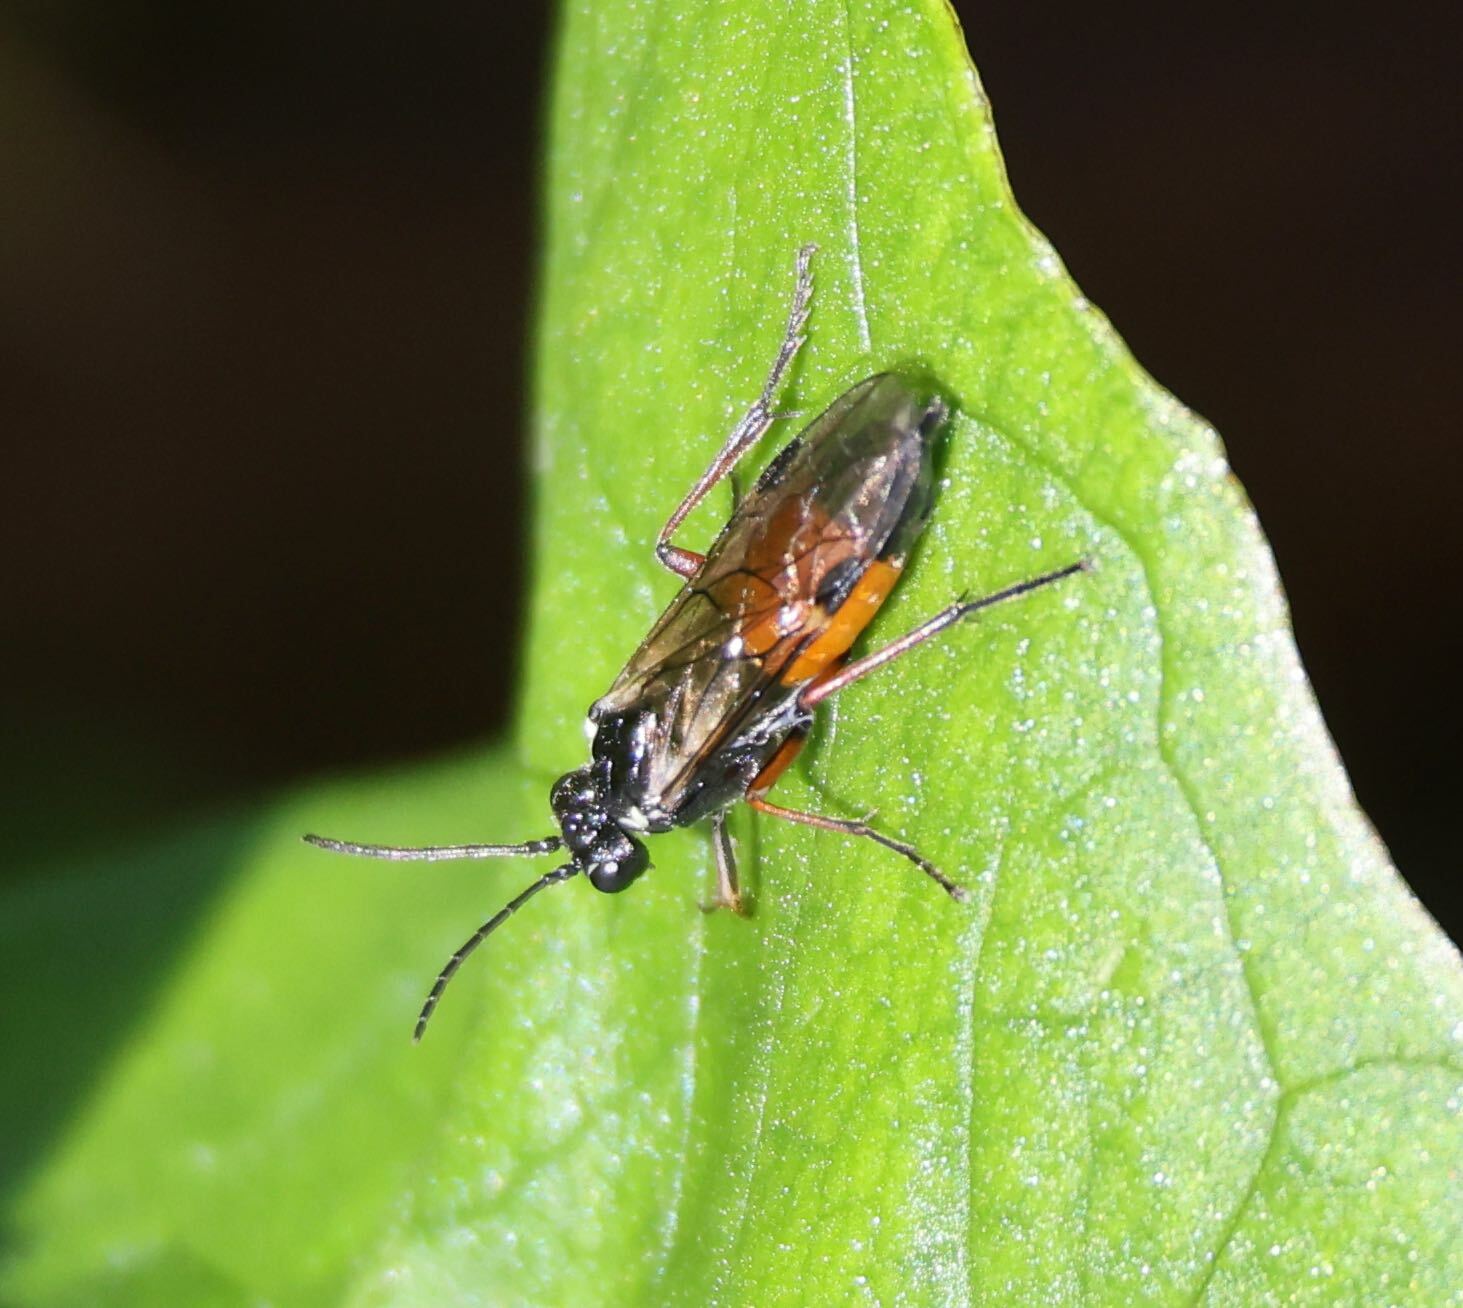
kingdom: Animalia
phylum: Arthropoda
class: Insecta
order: Hymenoptera
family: Tenthredinidae
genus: Aglaostigma
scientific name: Aglaostigma aucupariae
